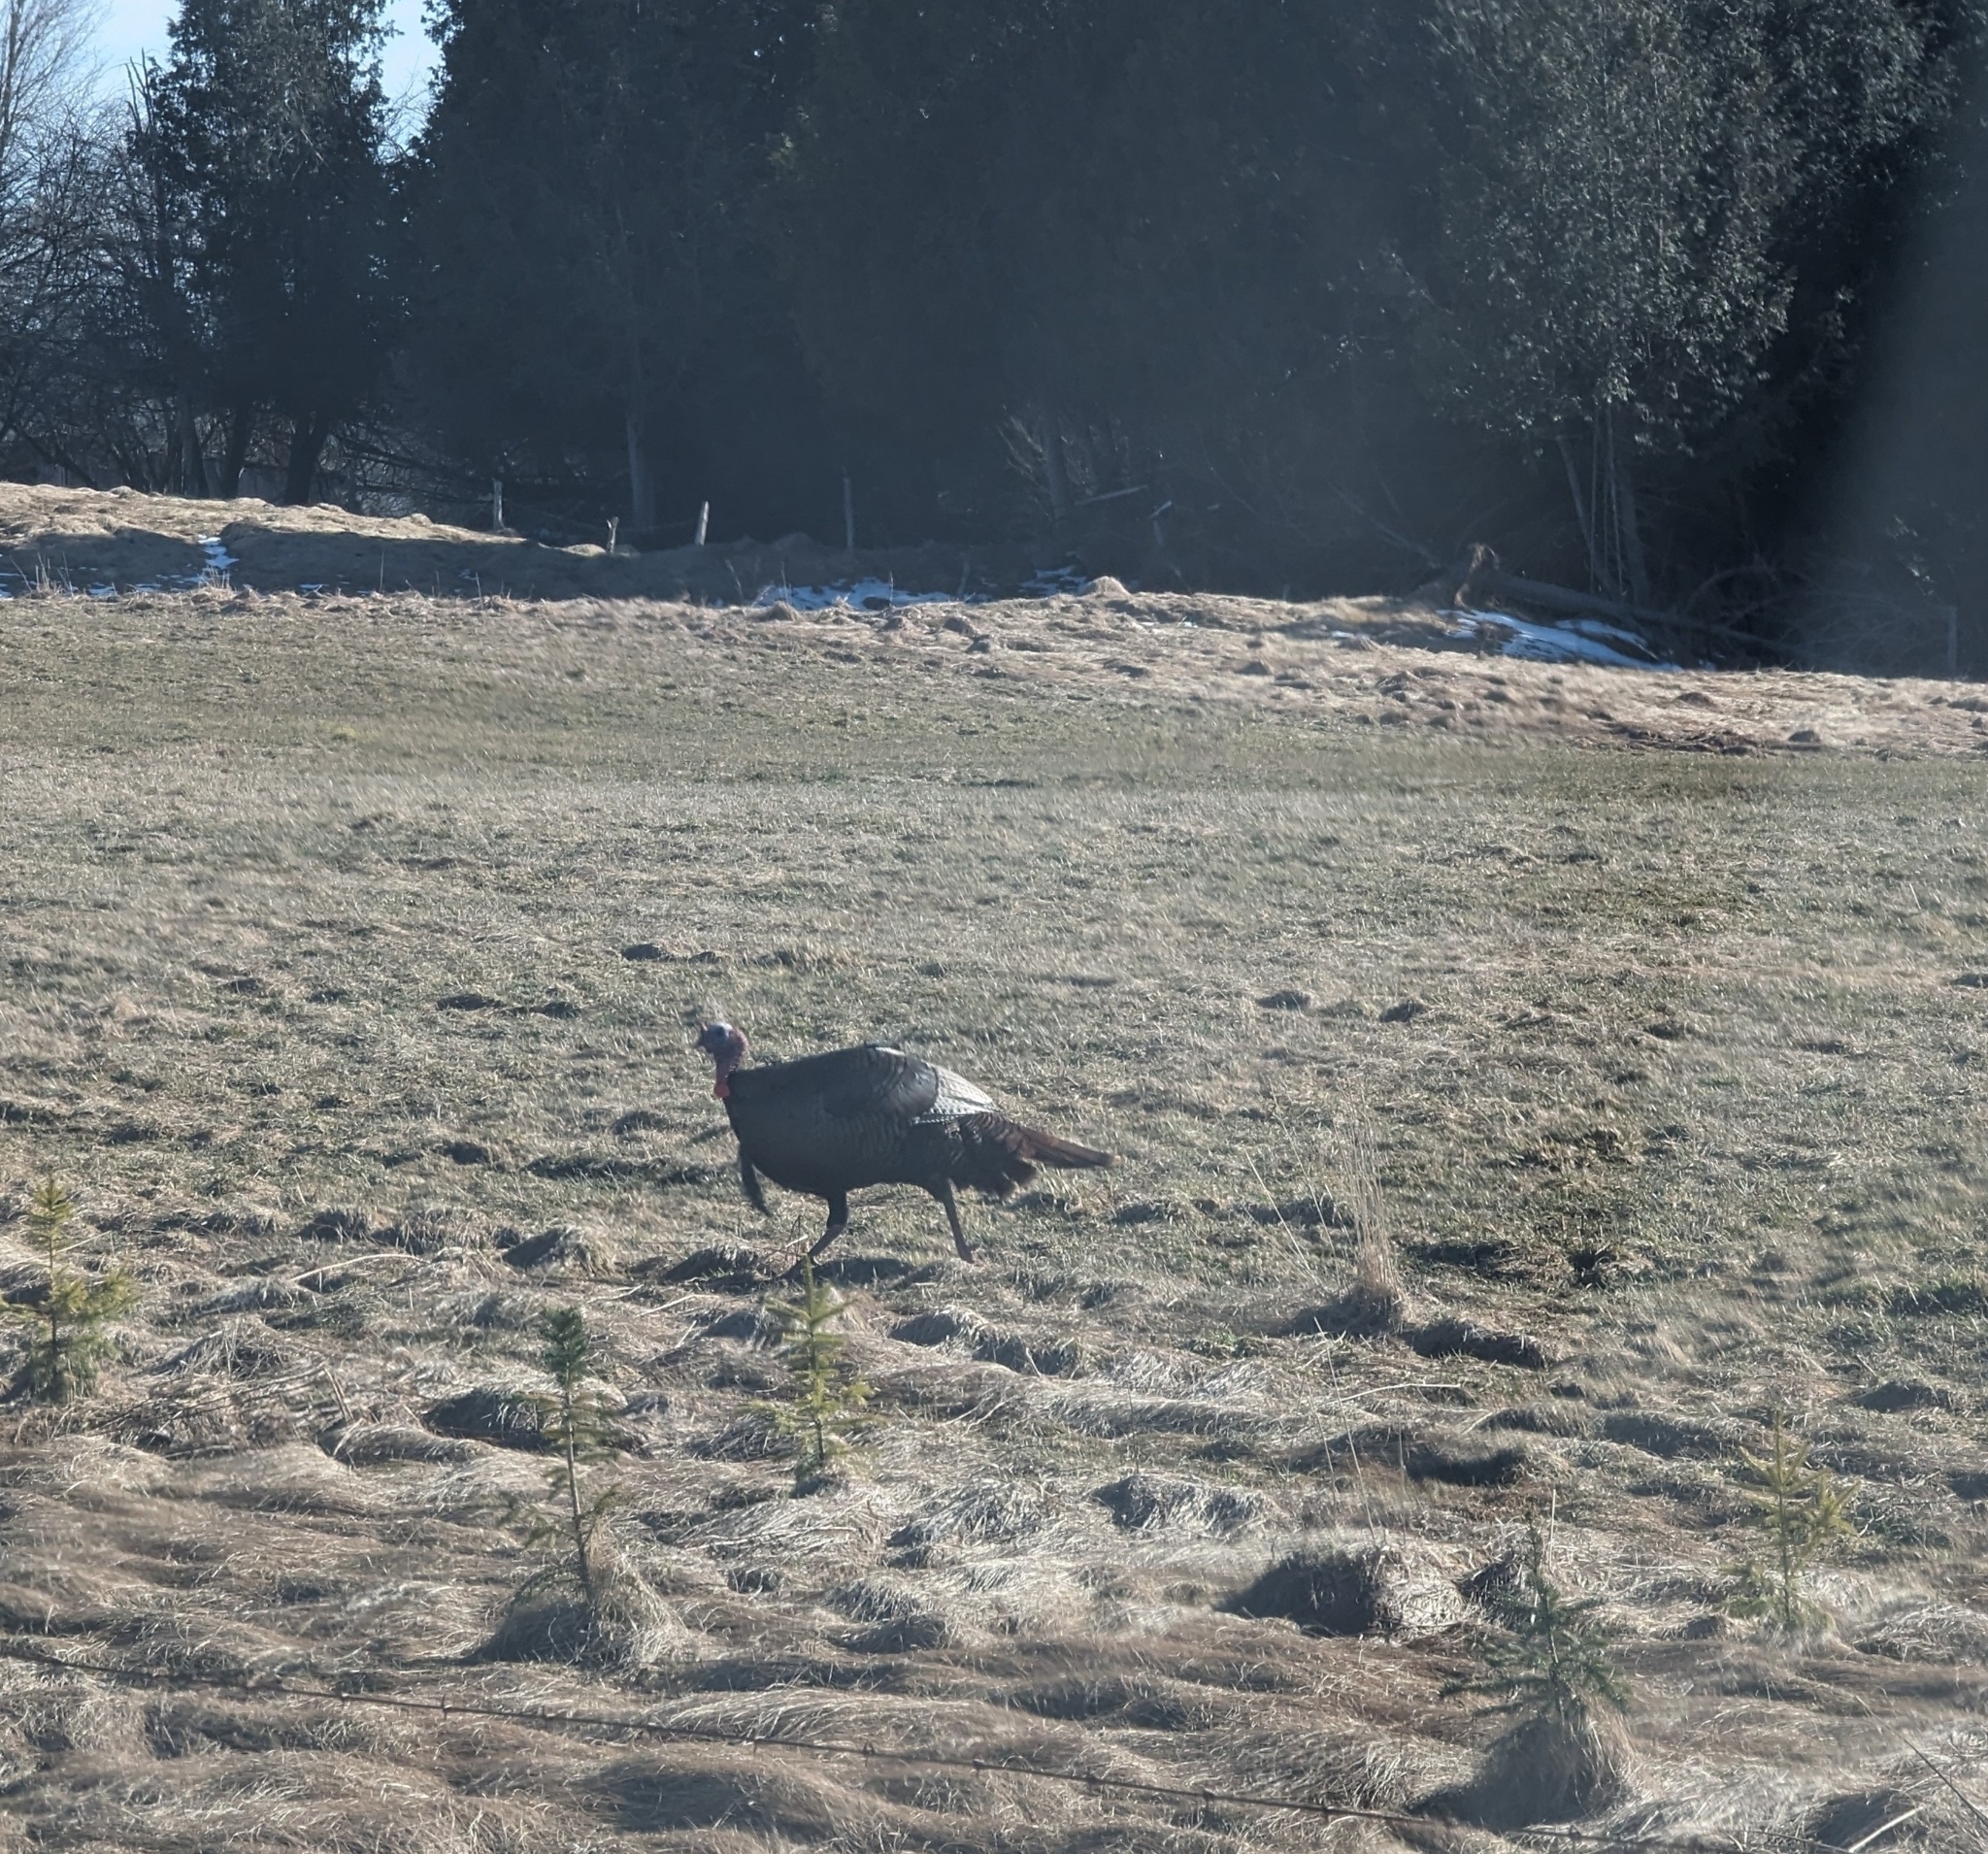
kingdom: Animalia
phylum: Chordata
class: Aves
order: Galliformes
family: Phasianidae
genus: Meleagris
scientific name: Meleagris gallopavo
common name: Wild turkey
